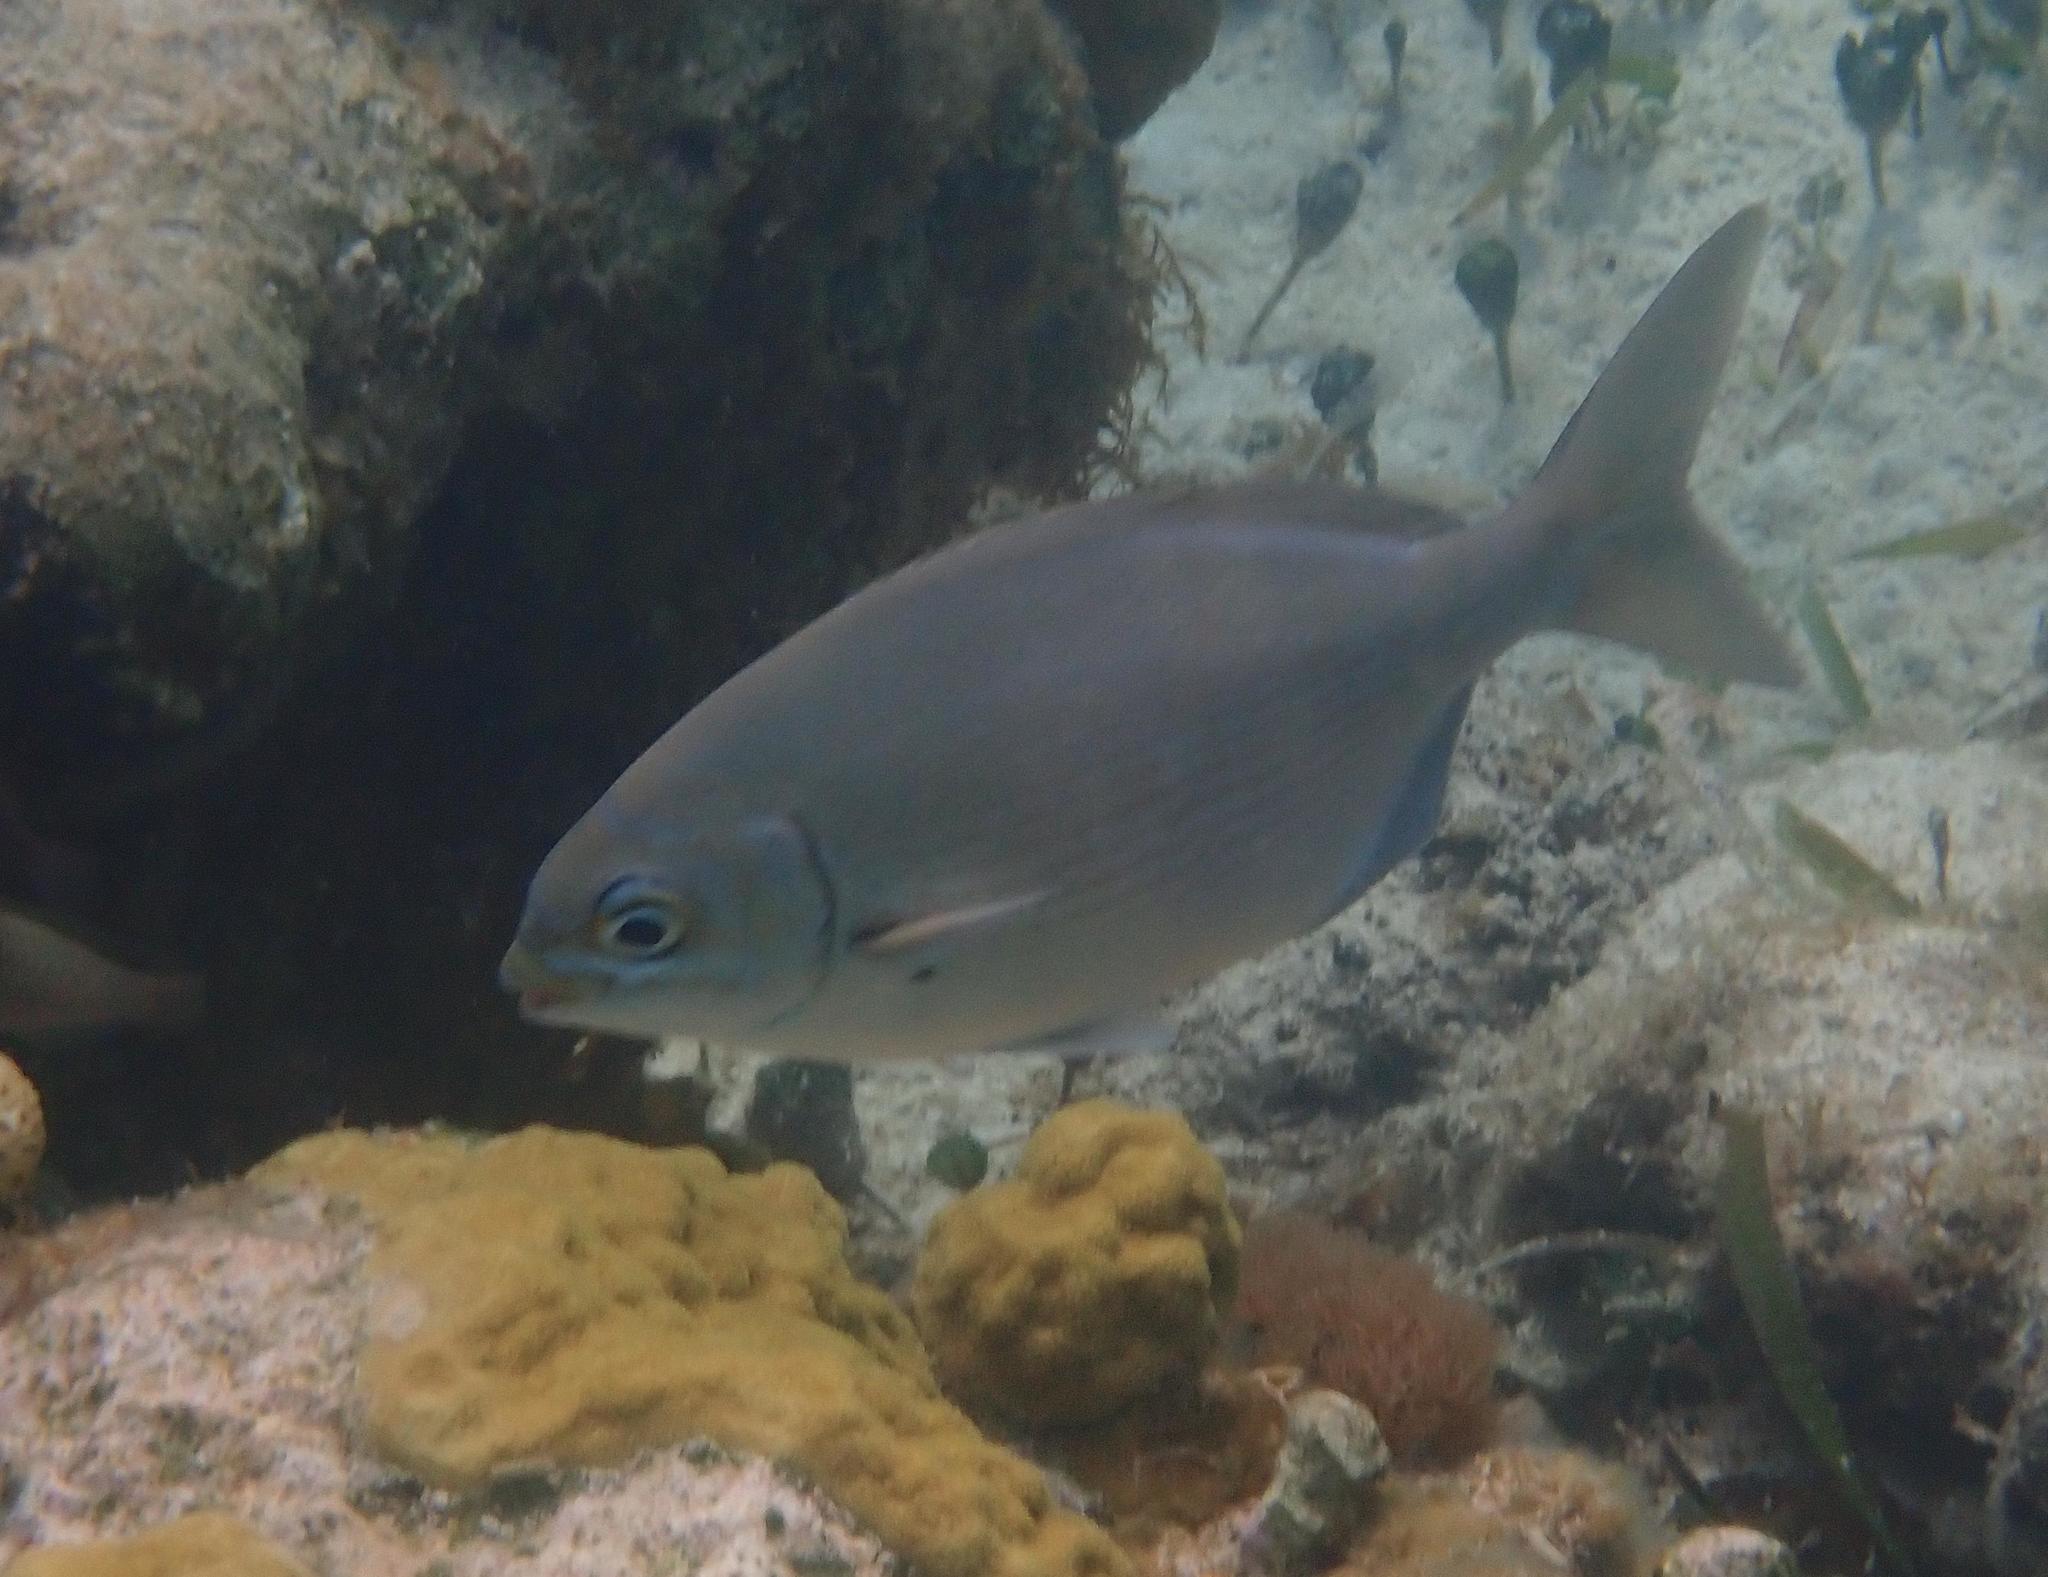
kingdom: Animalia
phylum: Chordata
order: Perciformes
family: Kyphosidae
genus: Kyphosus
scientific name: Kyphosus
